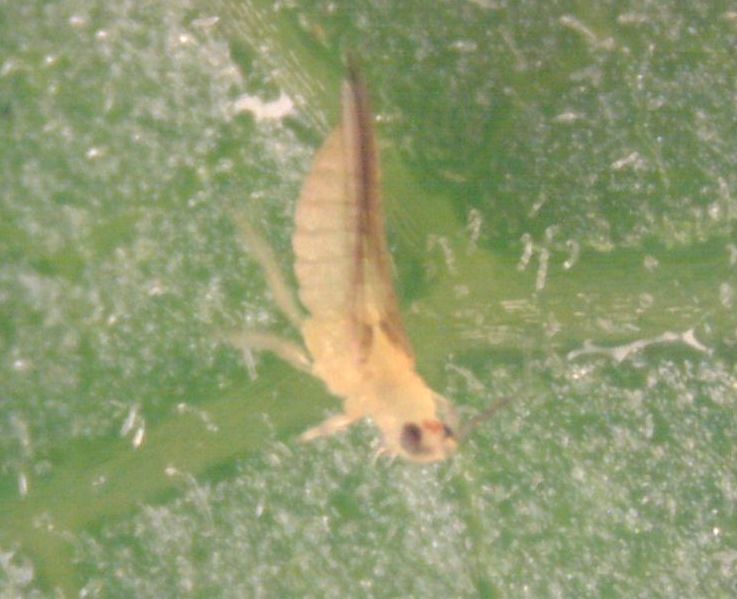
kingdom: Animalia
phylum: Arthropoda
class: Insecta
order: Thysanoptera
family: Thripidae
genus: Scirtothrips
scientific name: Scirtothrips dorsalis
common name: Thrips
